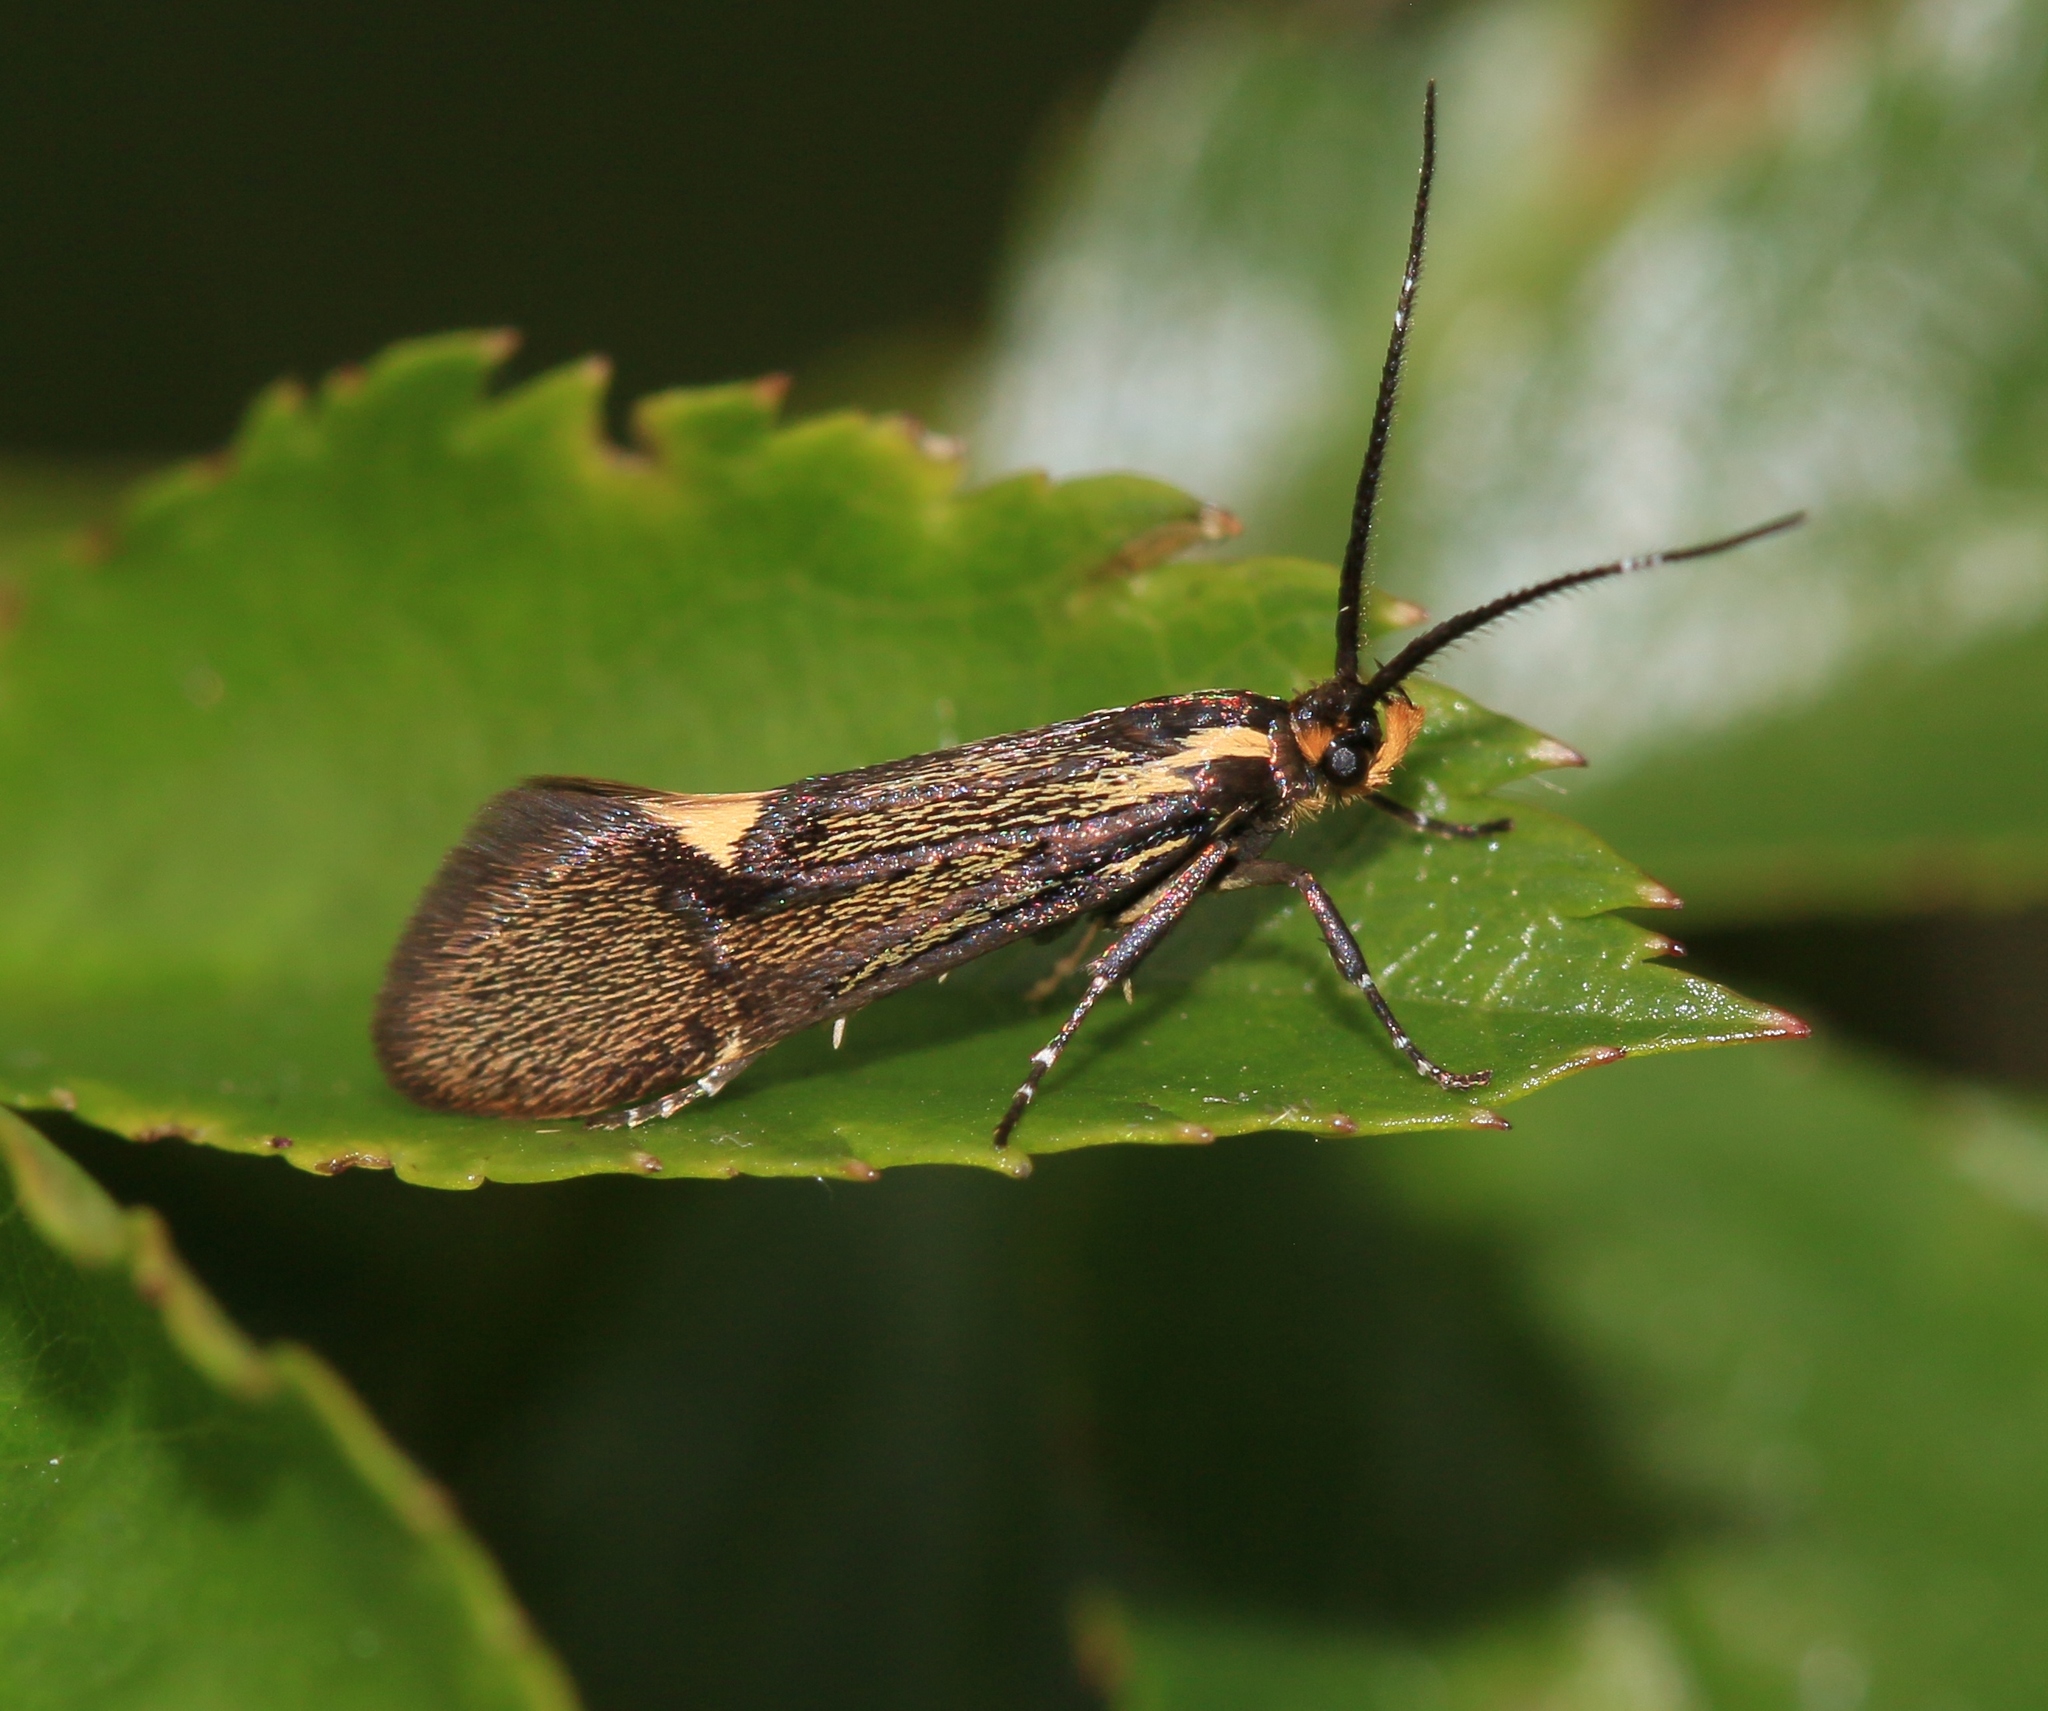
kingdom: Animalia
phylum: Arthropoda
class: Insecta
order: Lepidoptera
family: Oecophoridae
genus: Dafa
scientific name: Dafa Esperia sulphurella
